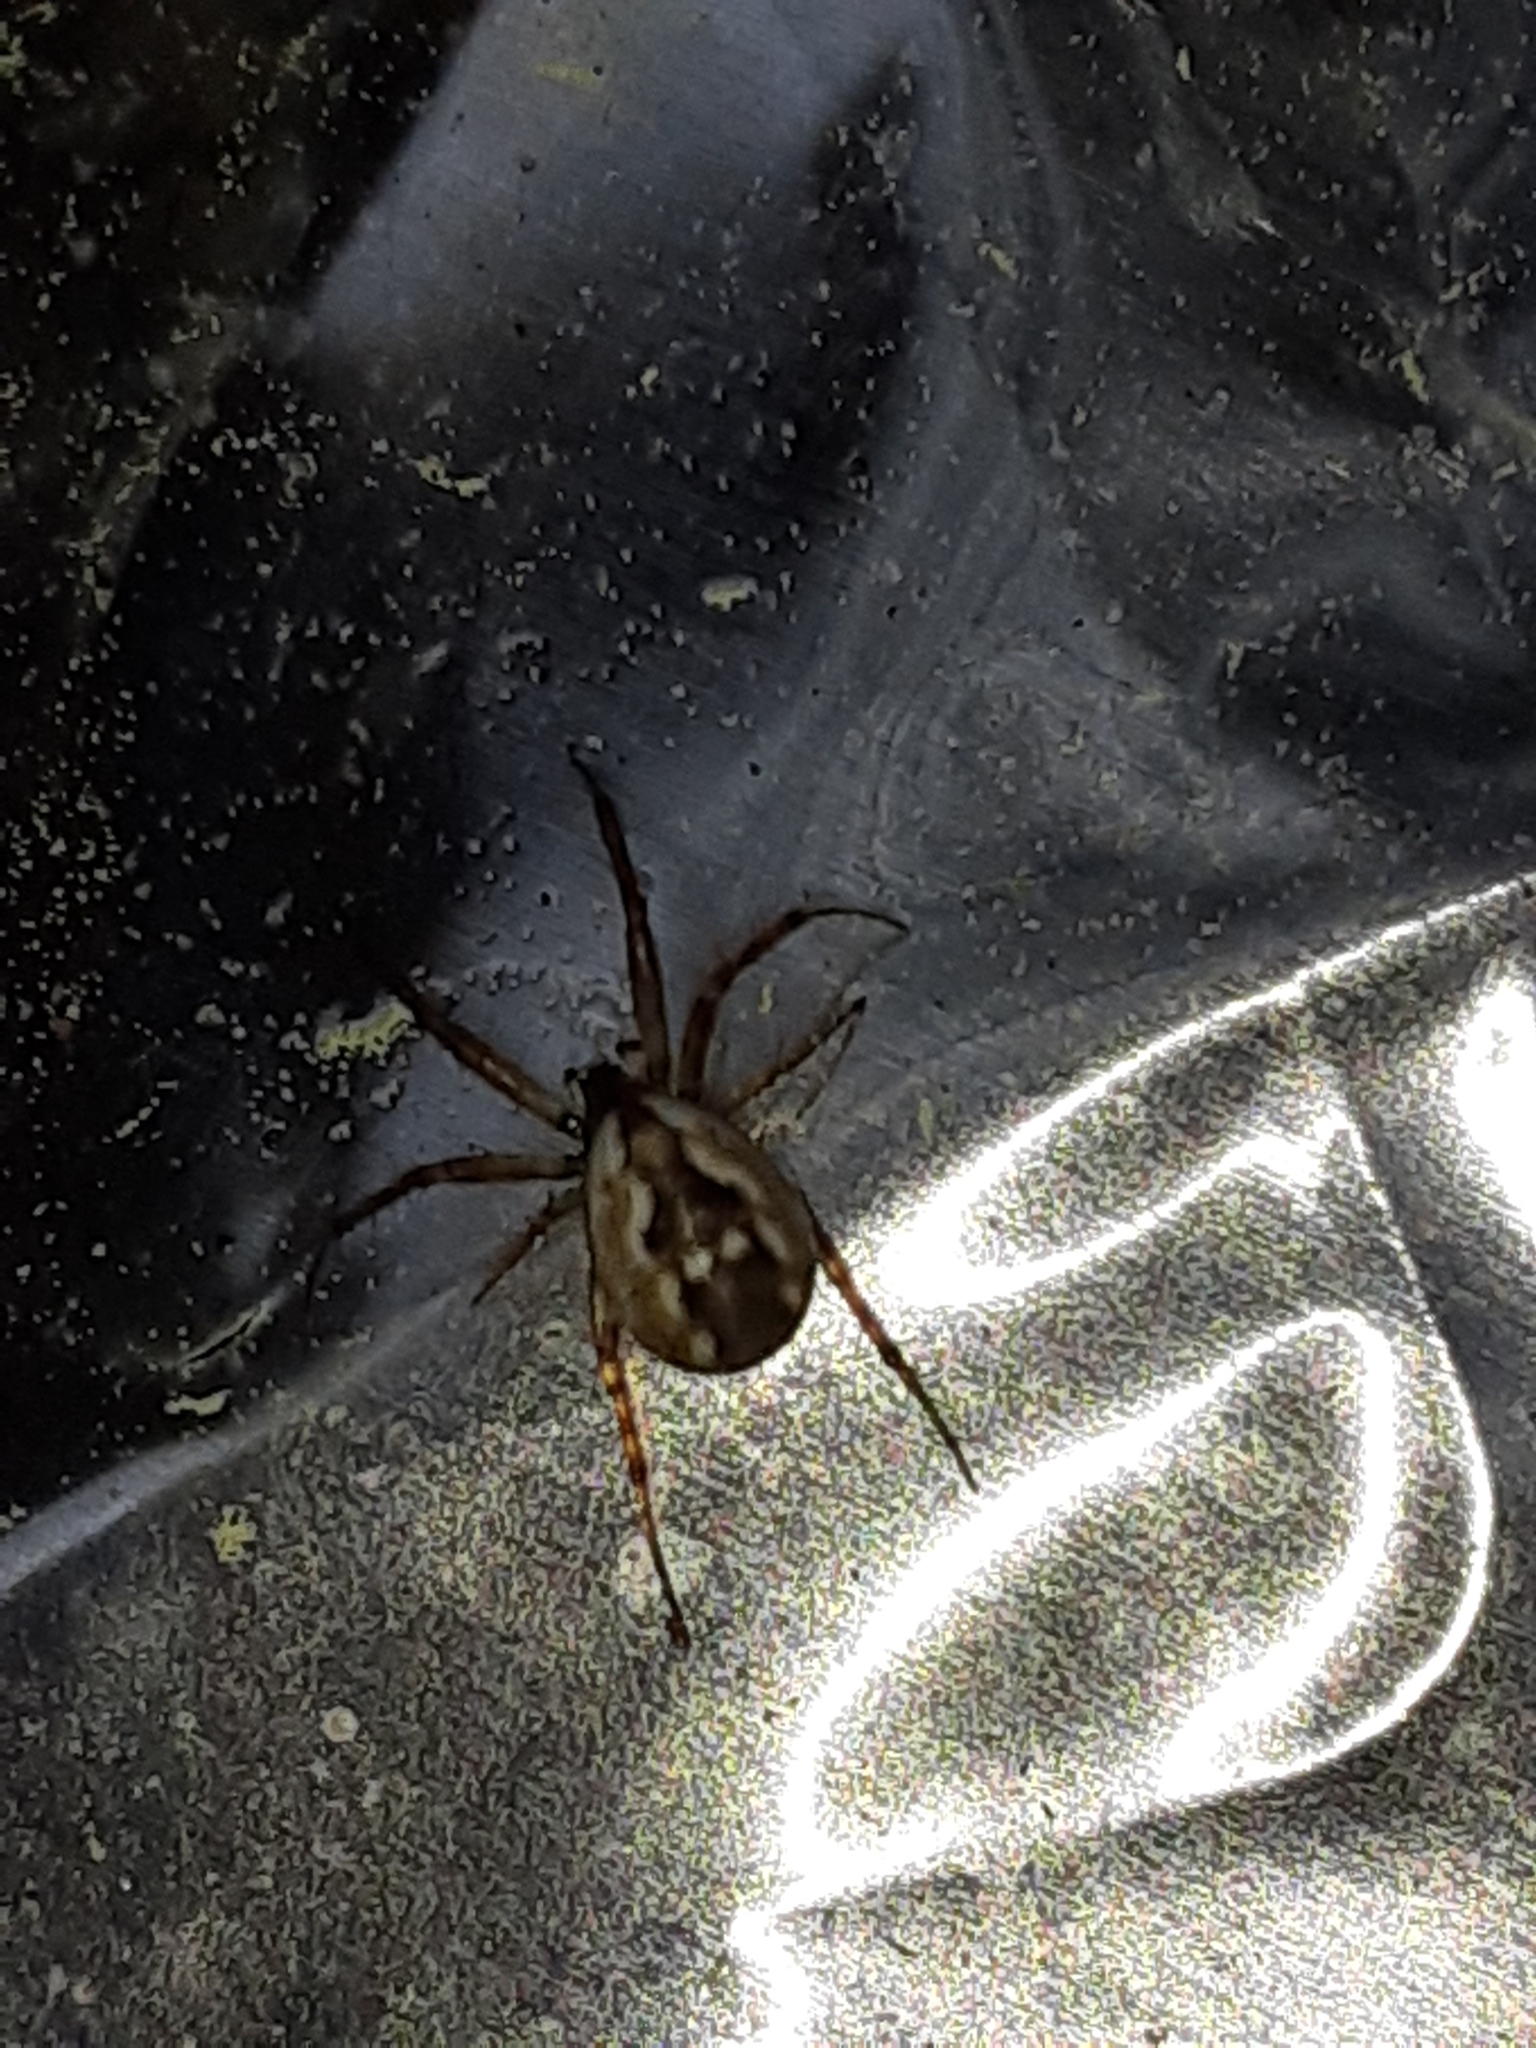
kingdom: Animalia
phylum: Arthropoda
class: Arachnida
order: Araneae
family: Araneidae
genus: Mangora
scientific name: Mangora placida
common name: Tuft-legged orbweaver
